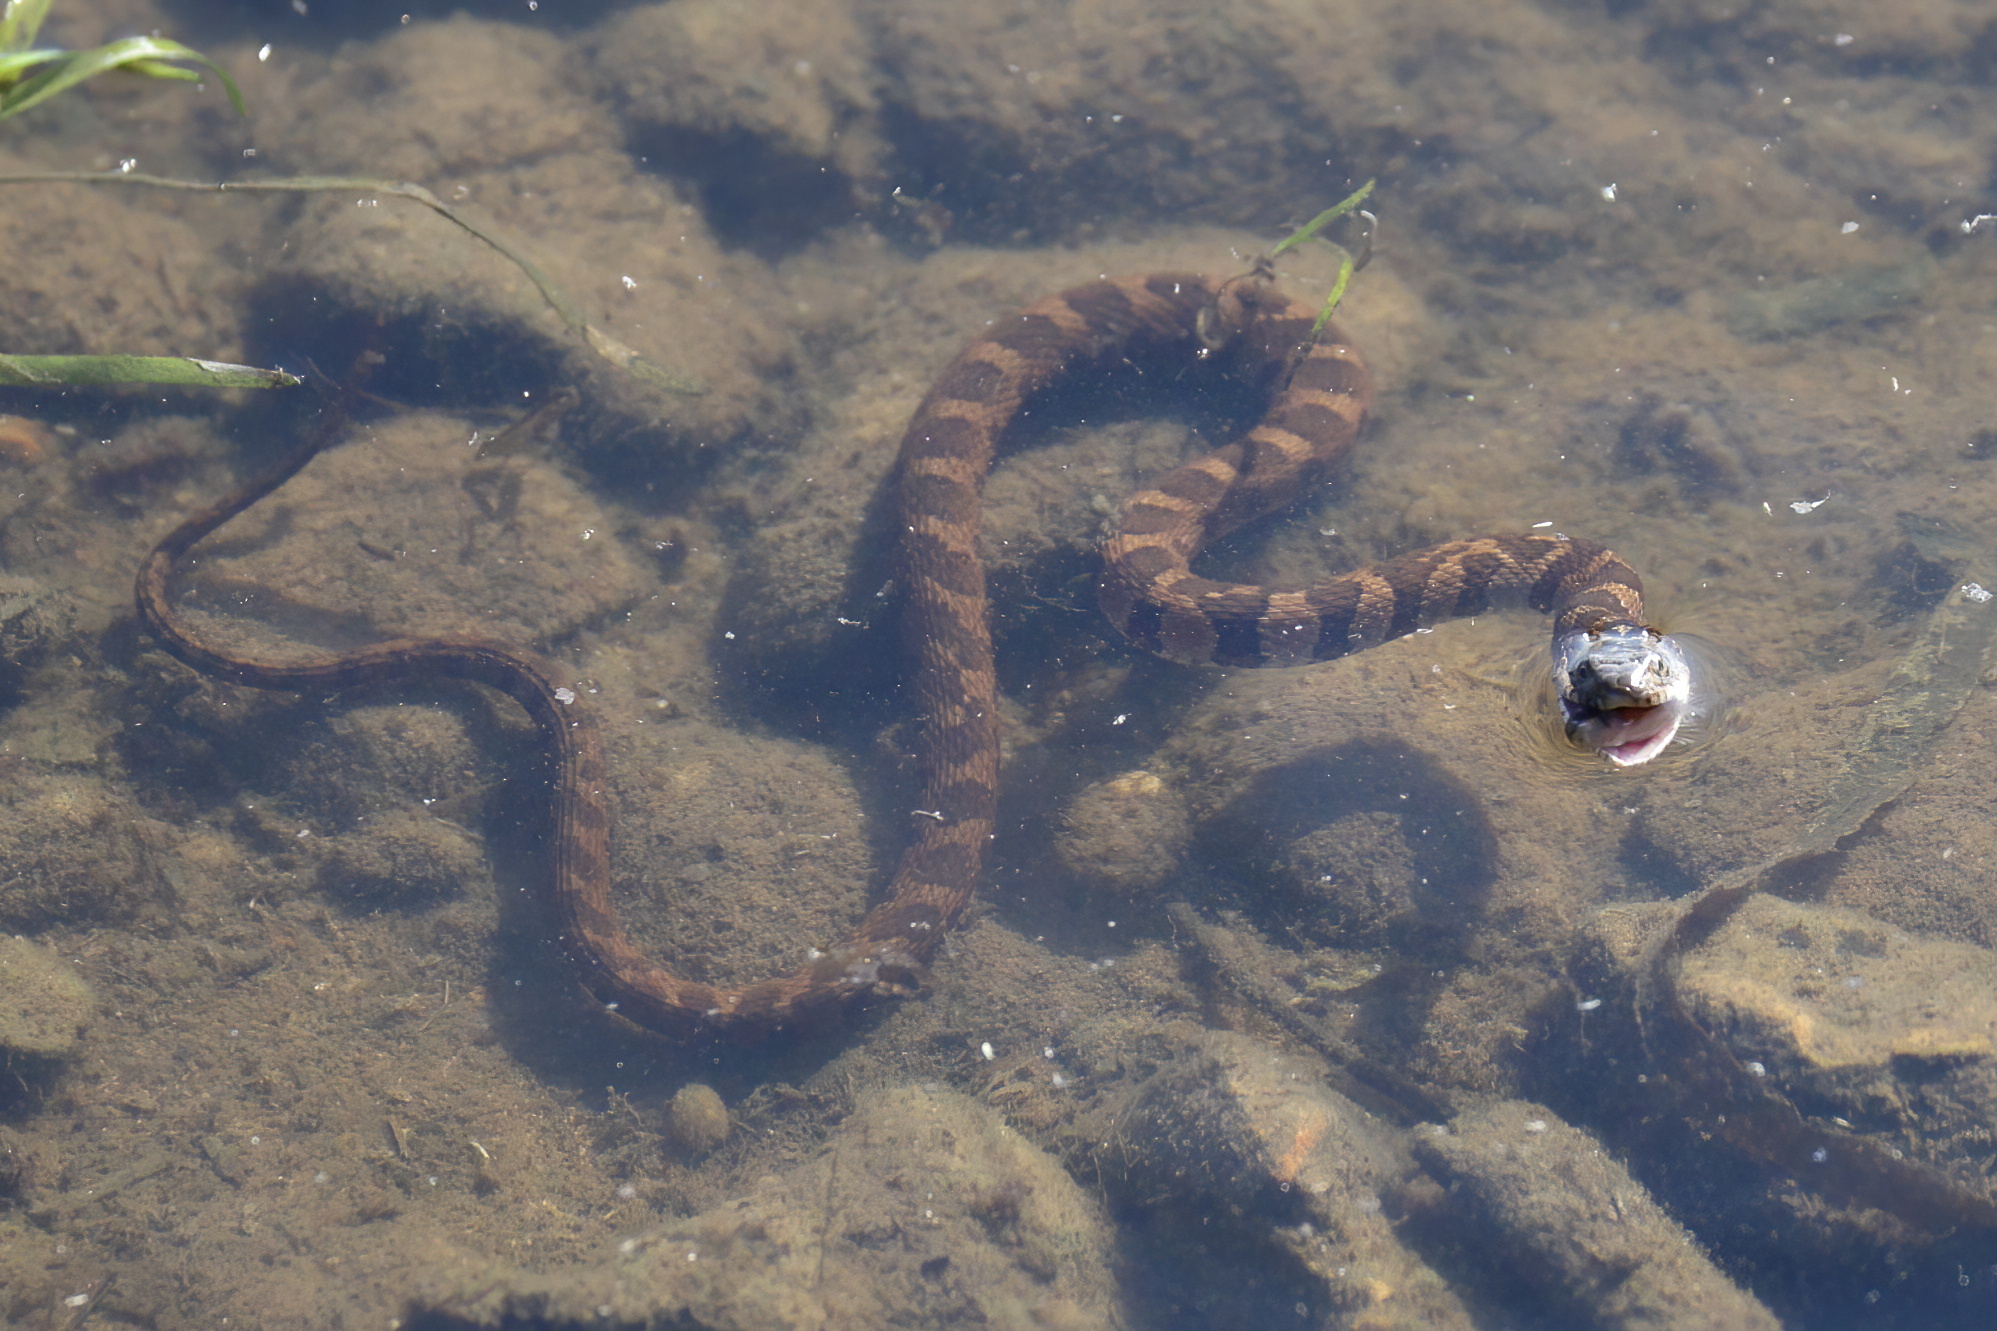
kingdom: Animalia
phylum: Chordata
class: Squamata
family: Colubridae
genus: Nerodia
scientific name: Nerodia sipedon
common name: Northern water snake
